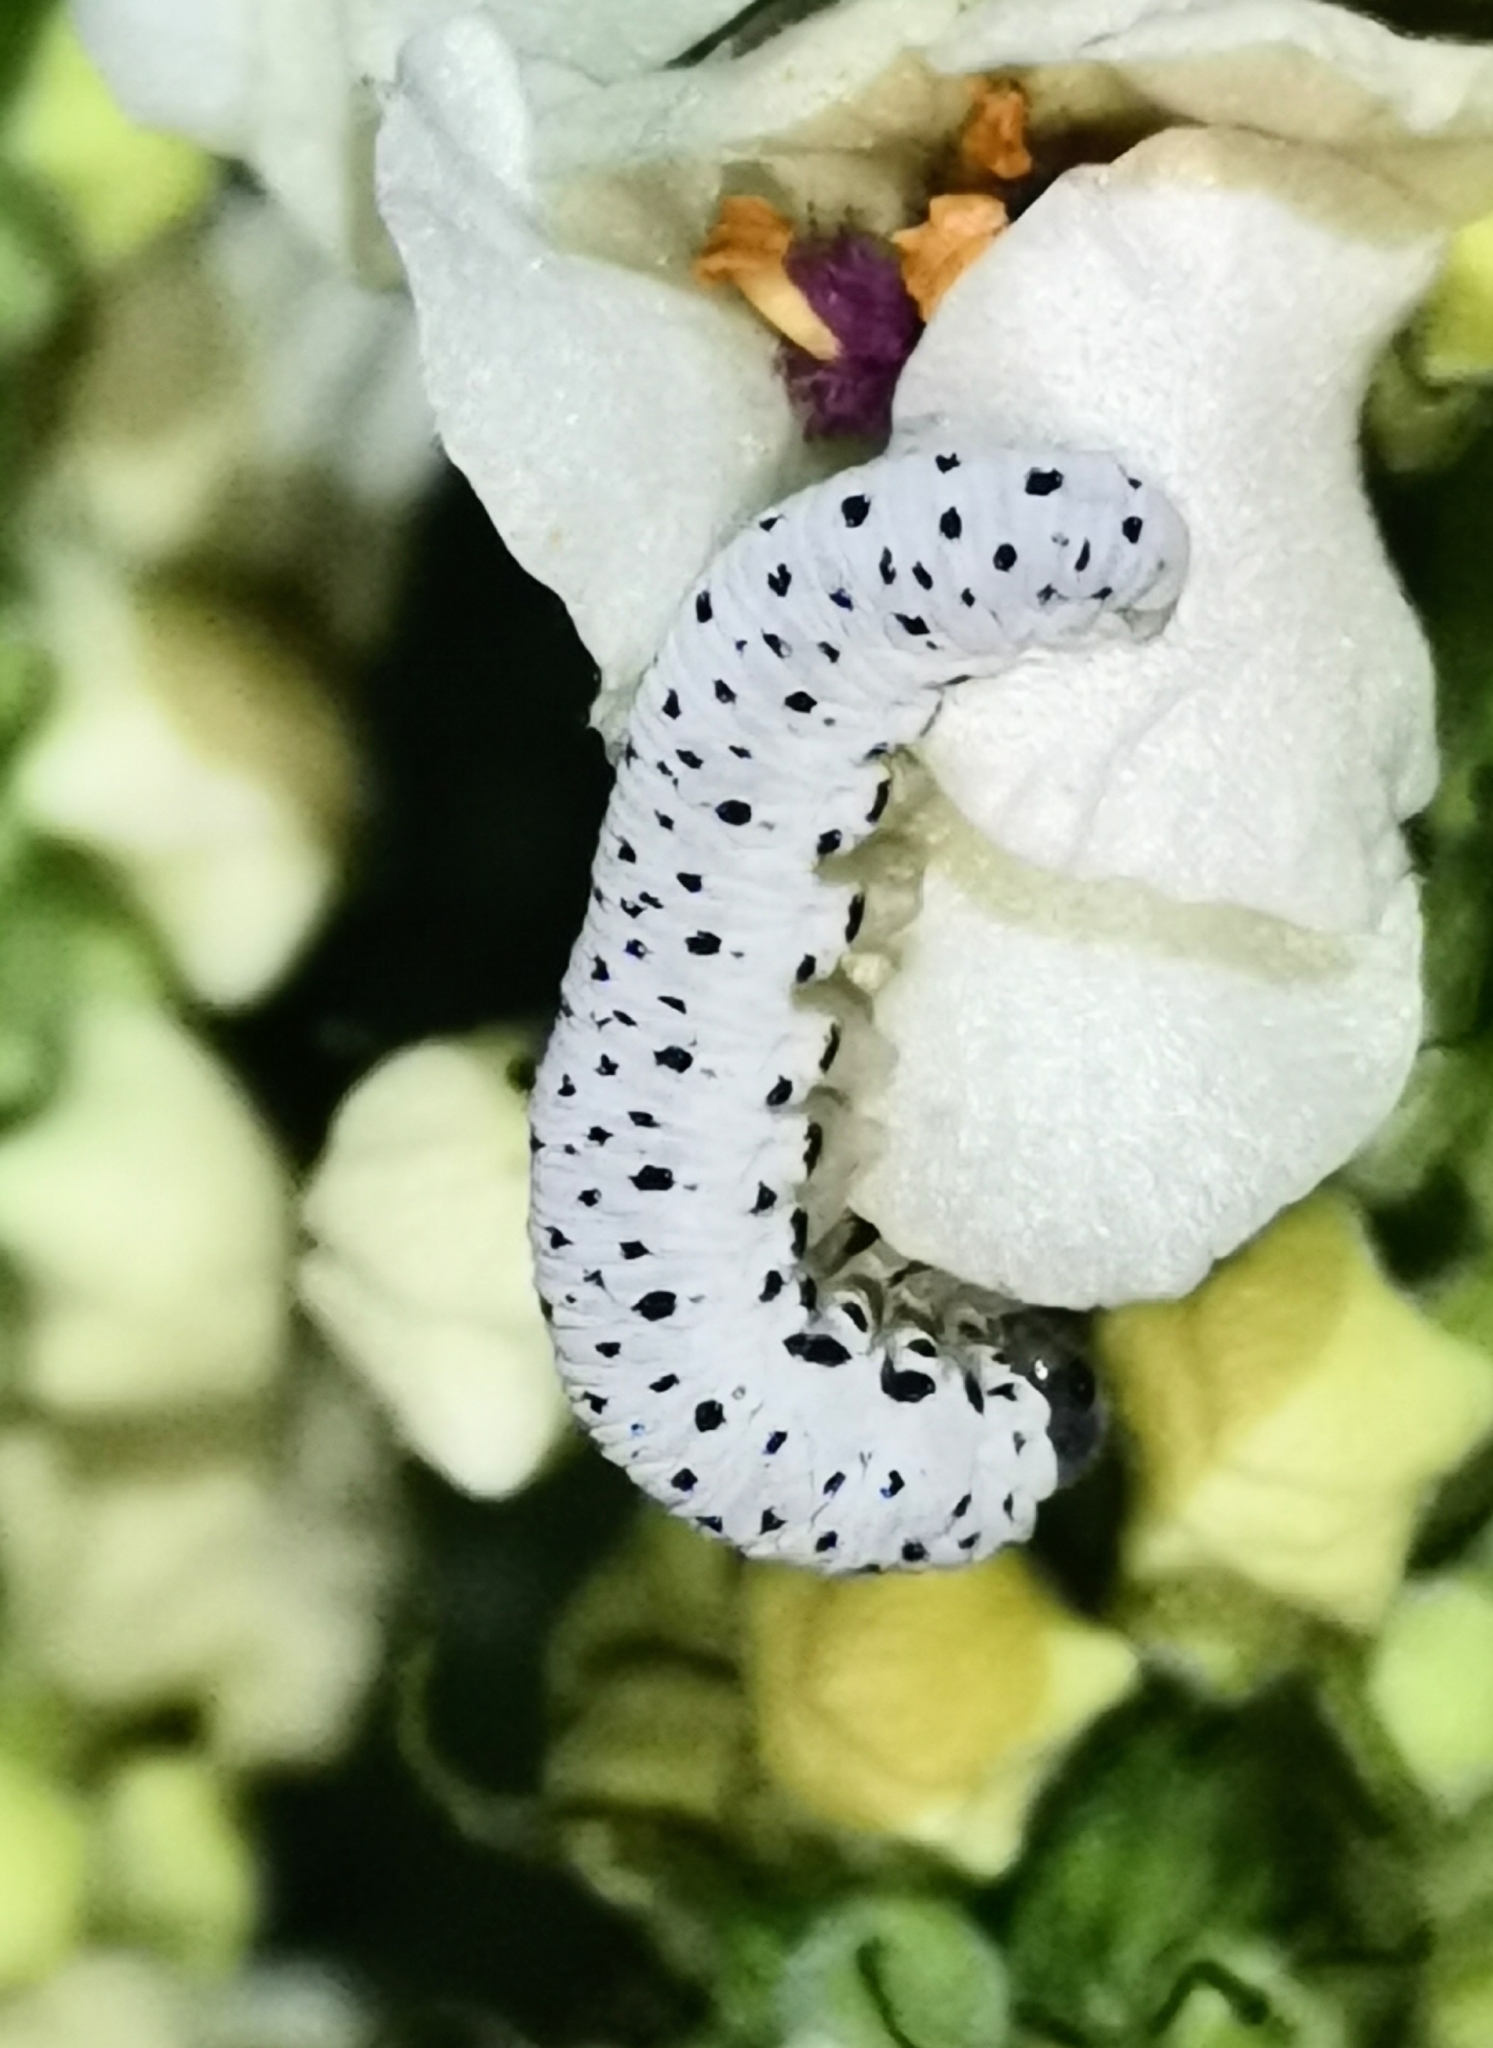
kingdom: Animalia
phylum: Arthropoda
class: Insecta
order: Hymenoptera
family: Tenthredinidae
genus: Tenthredo
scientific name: Tenthredo scrophulariae
